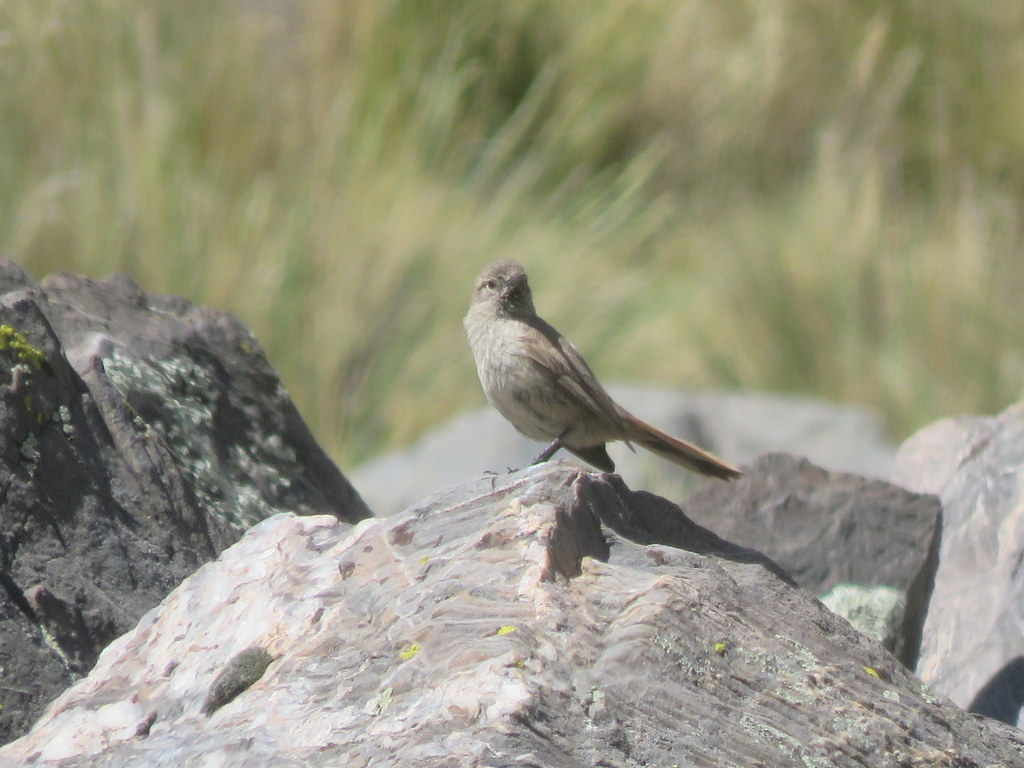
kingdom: Animalia
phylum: Chordata
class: Aves
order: Passeriformes
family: Furnariidae
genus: Asthenes
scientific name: Asthenes modesta
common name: Cordilleran canastero
